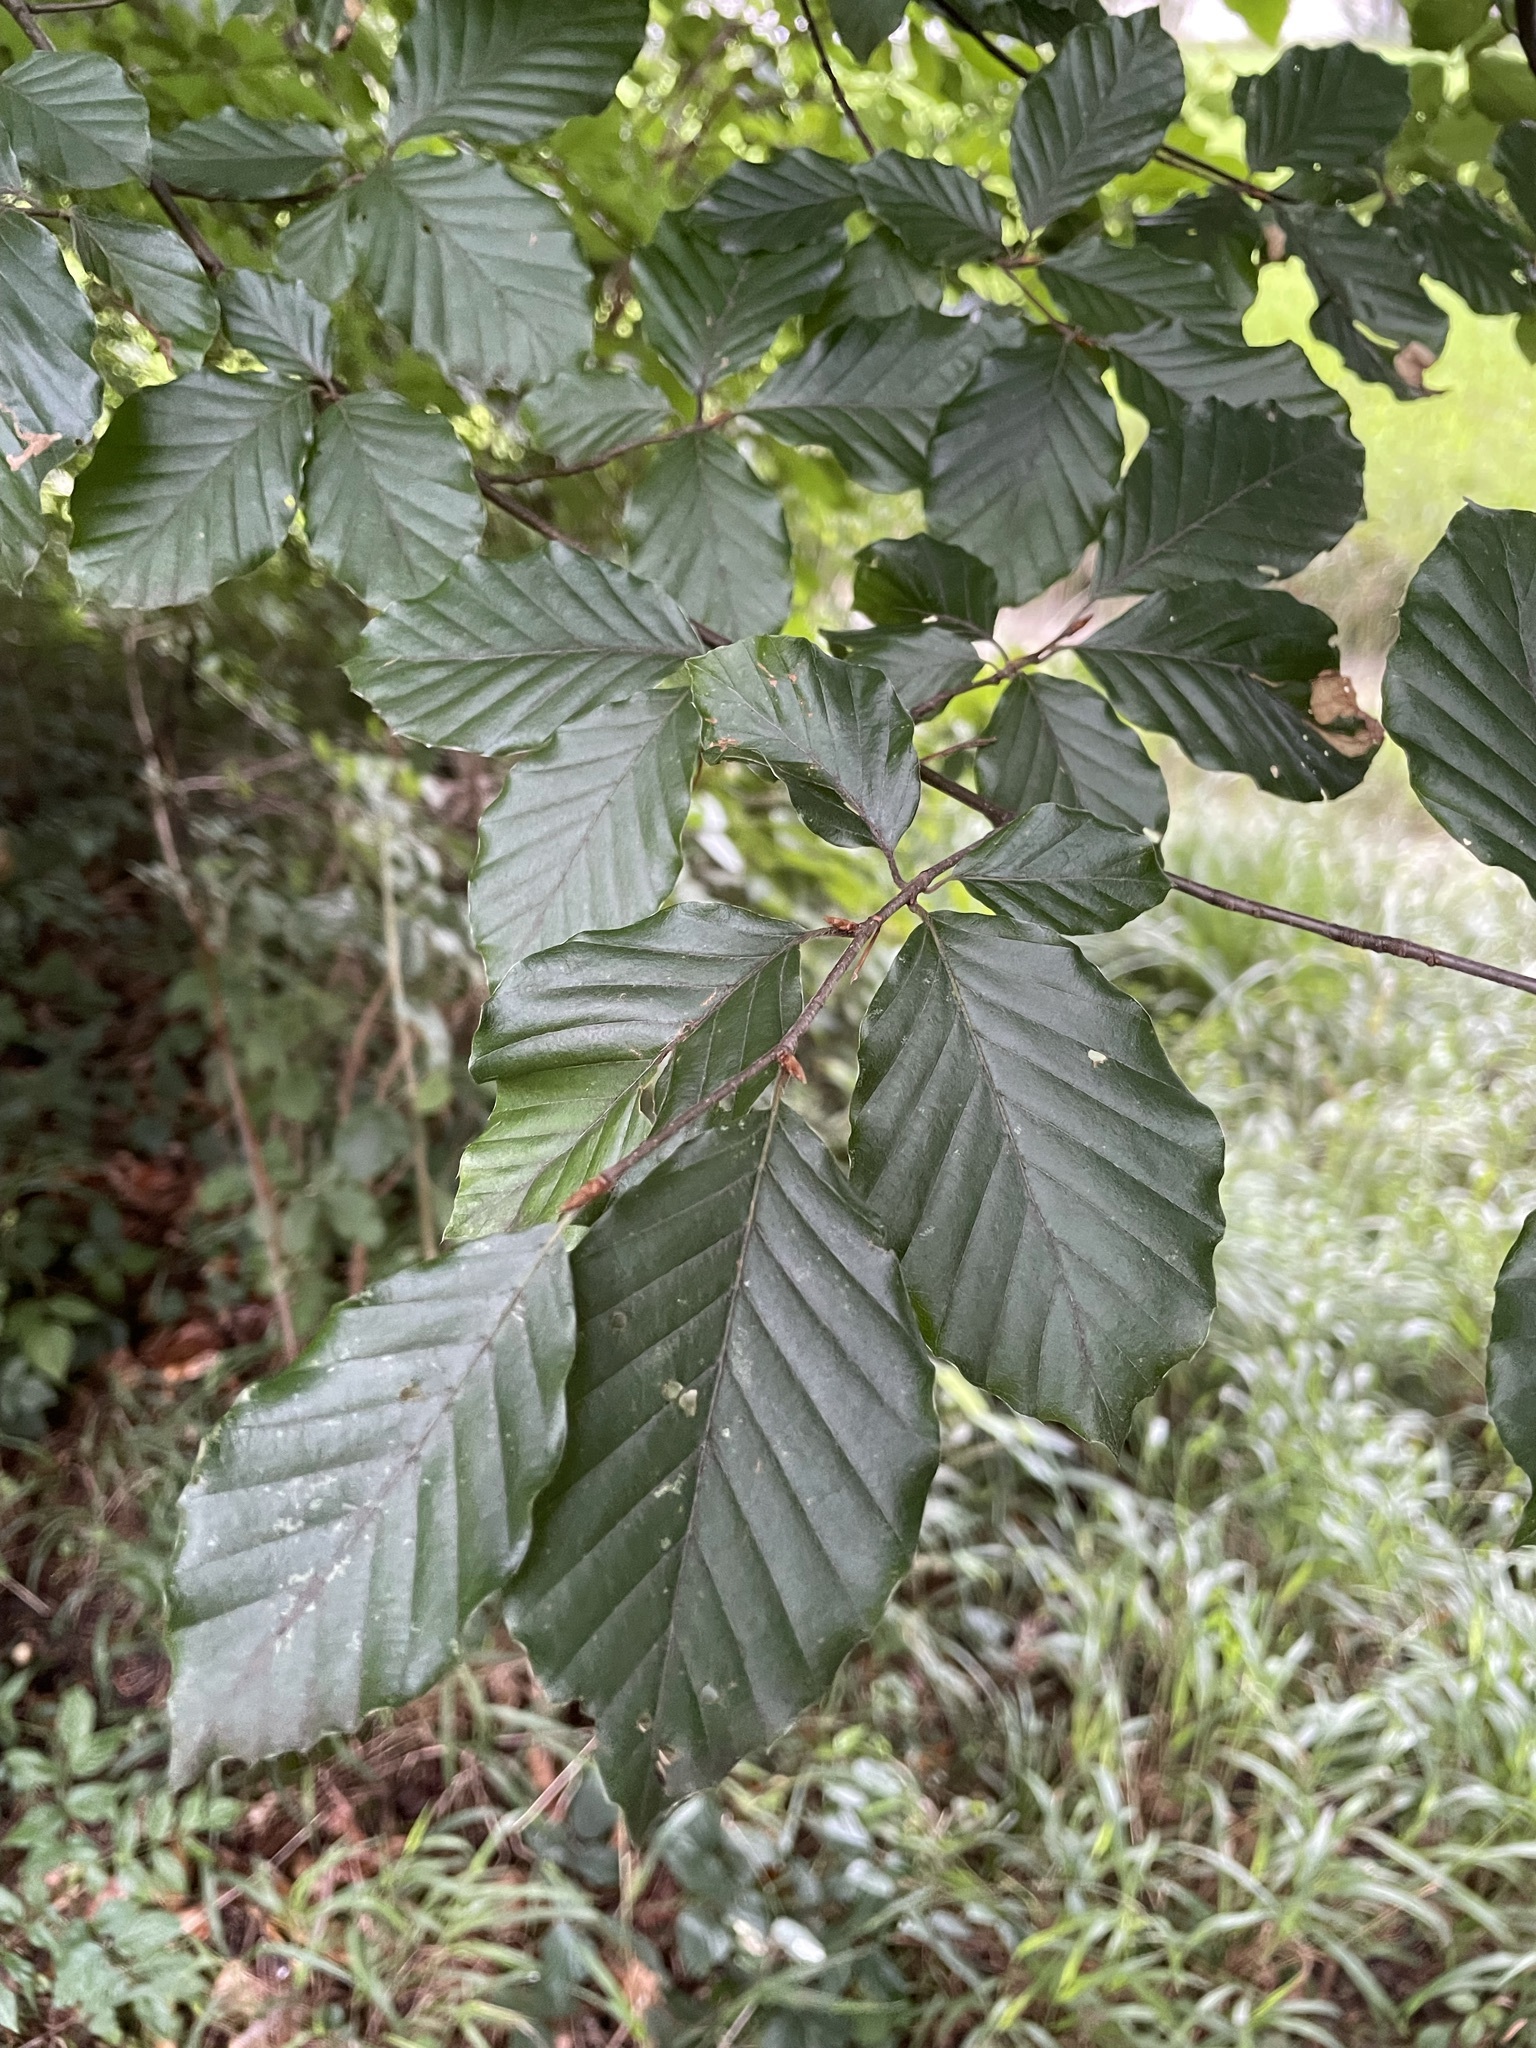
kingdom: Plantae
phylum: Tracheophyta
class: Magnoliopsida
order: Fagales
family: Fagaceae
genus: Fagus
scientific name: Fagus sylvatica
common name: Beech
